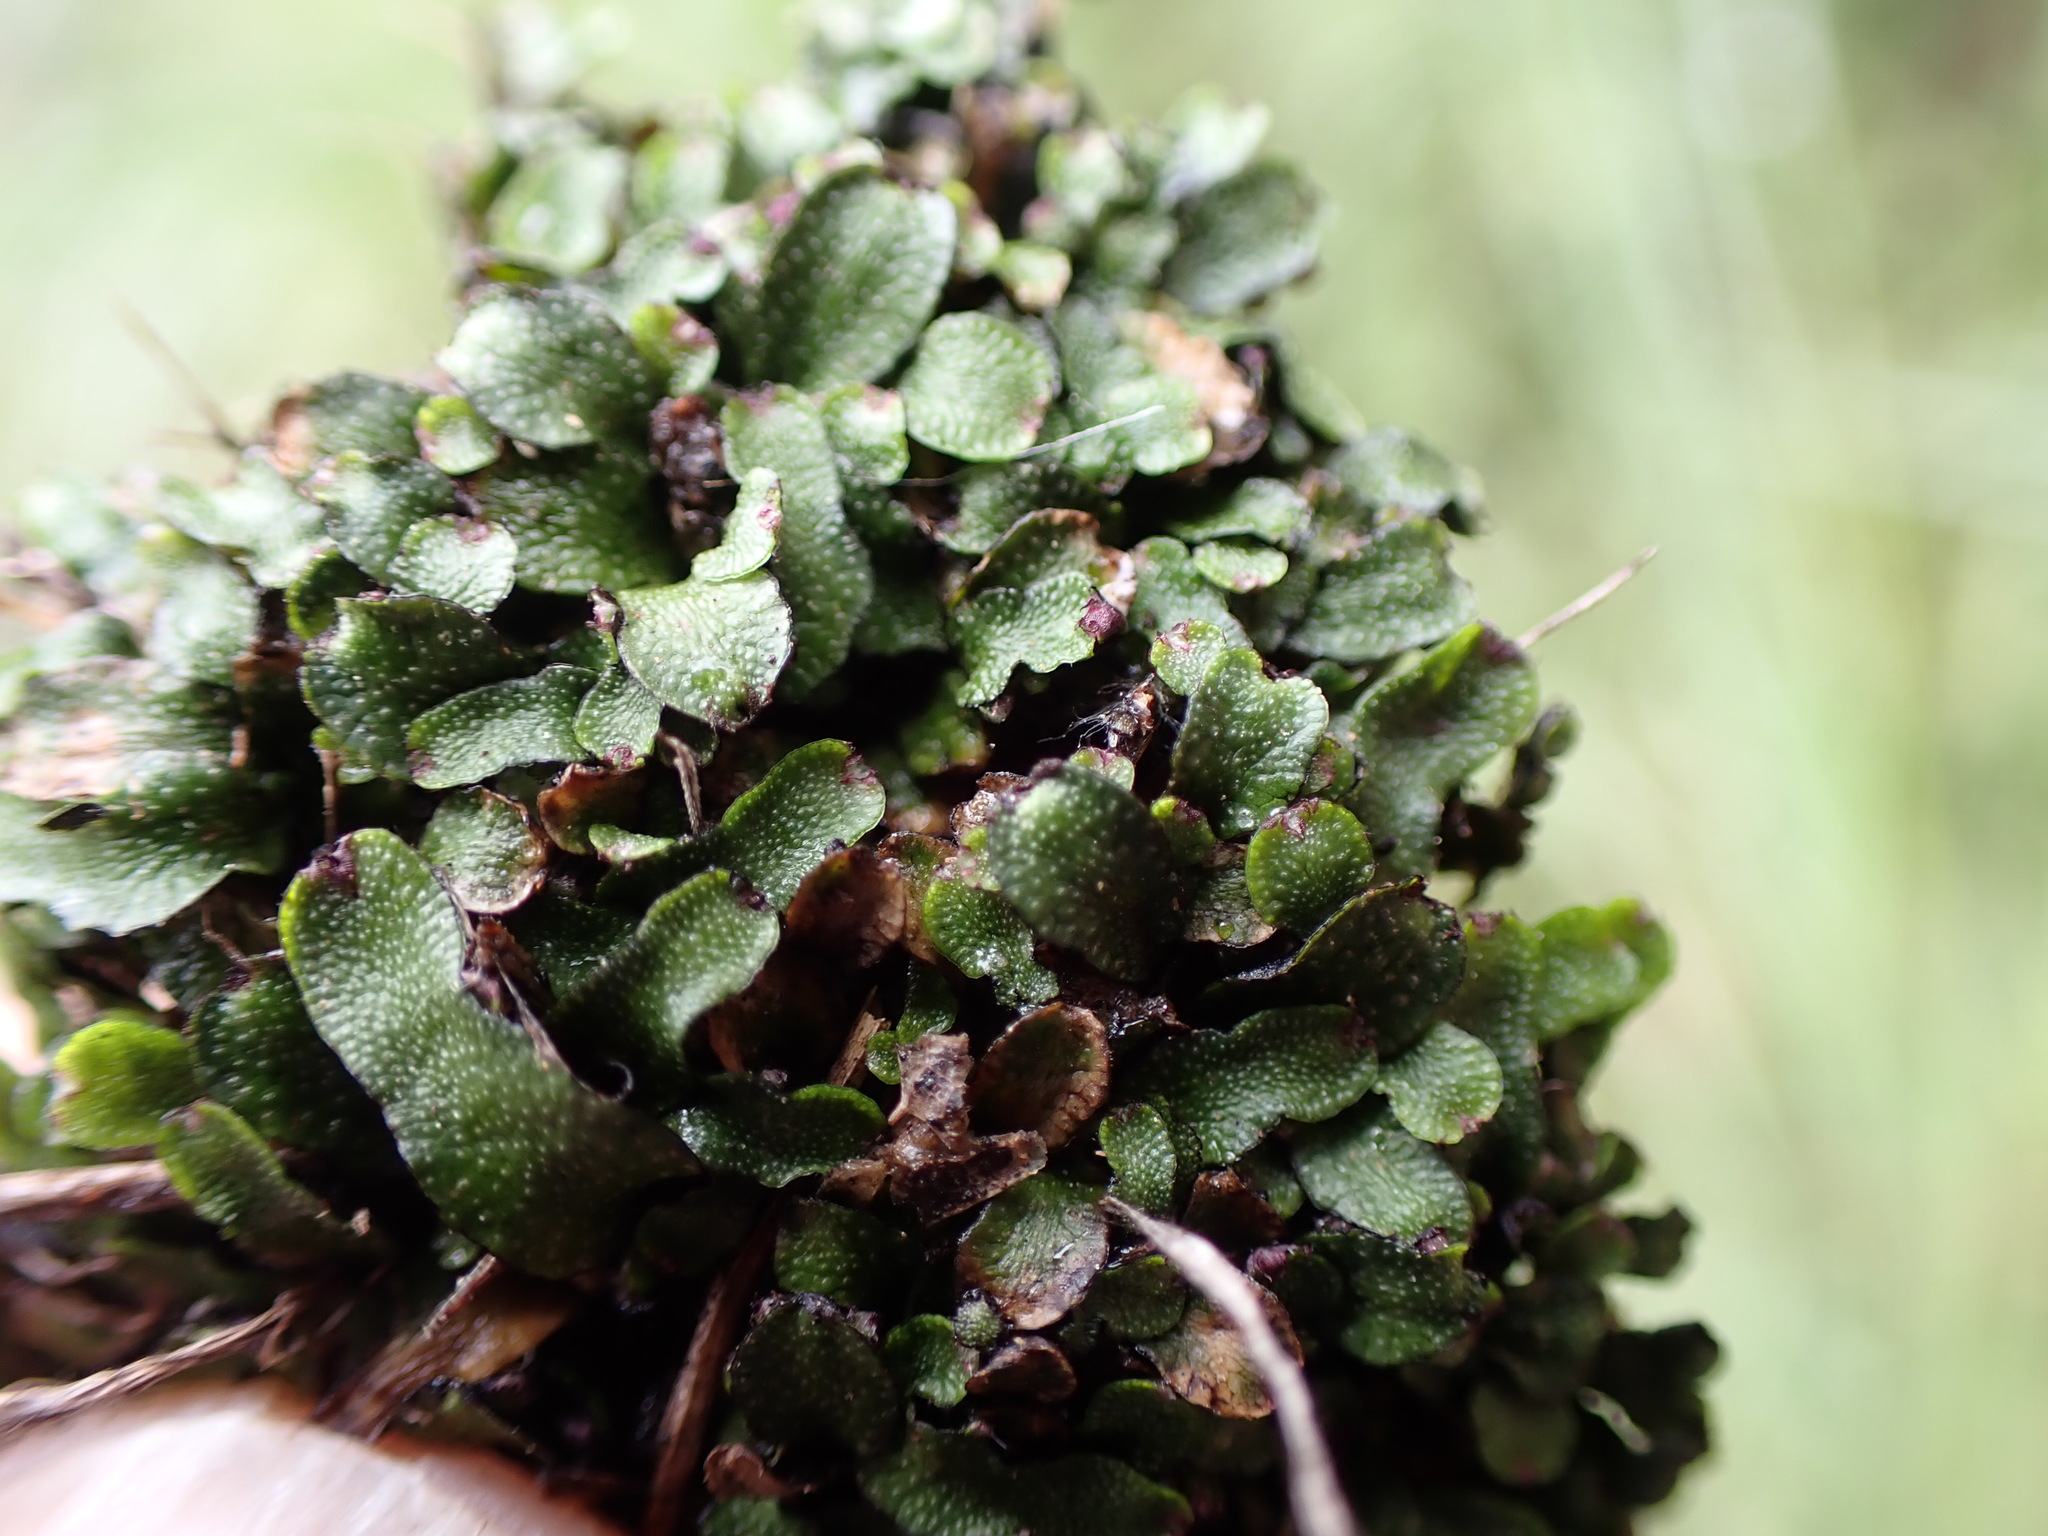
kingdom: Plantae
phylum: Marchantiophyta
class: Marchantiopsida
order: Marchantiales
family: Targioniaceae
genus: Targionia
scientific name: Targionia hypophylla
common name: Orobus-seed liverwort
